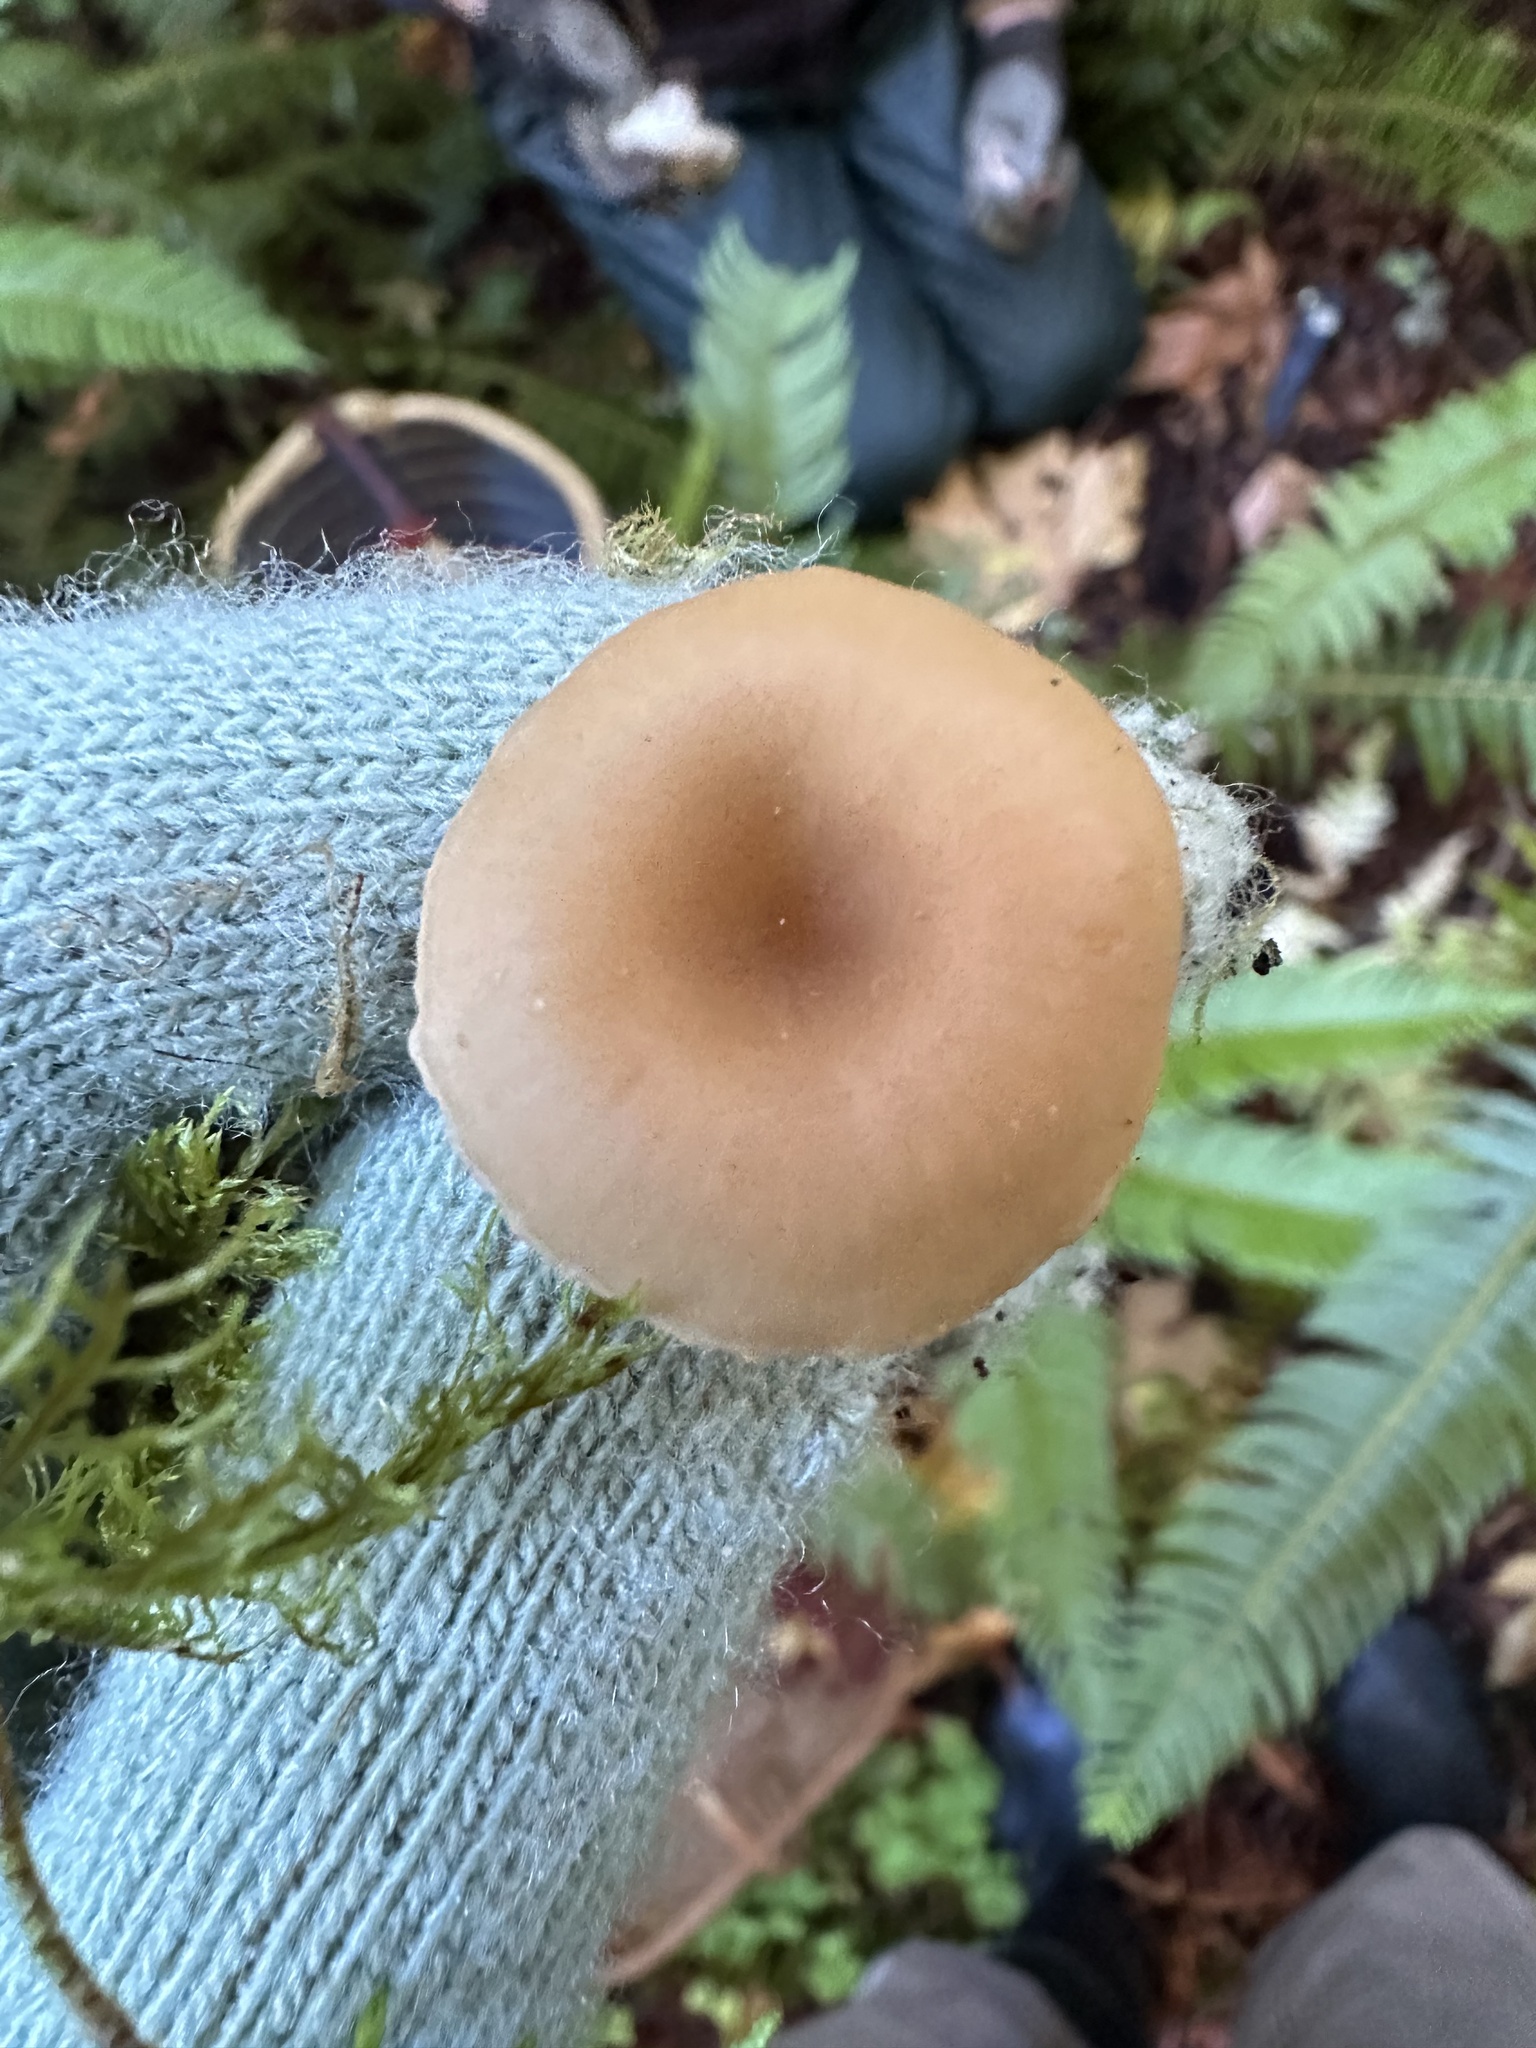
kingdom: Fungi
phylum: Basidiomycota
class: Agaricomycetes
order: Agaricales
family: Tricholomataceae
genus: Pseudoomphalina
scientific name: Pseudoomphalina intermedia
